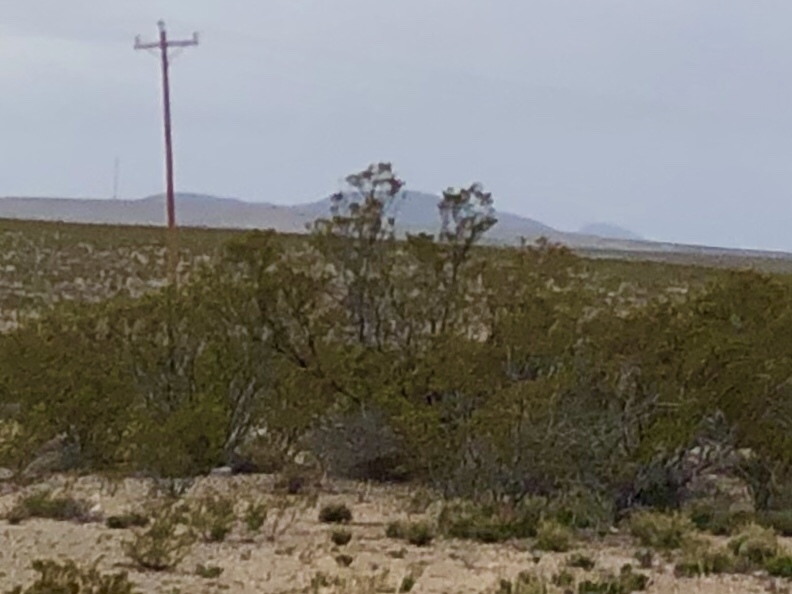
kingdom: Plantae
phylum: Tracheophyta
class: Magnoliopsida
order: Zygophyllales
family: Zygophyllaceae
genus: Larrea
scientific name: Larrea tridentata
